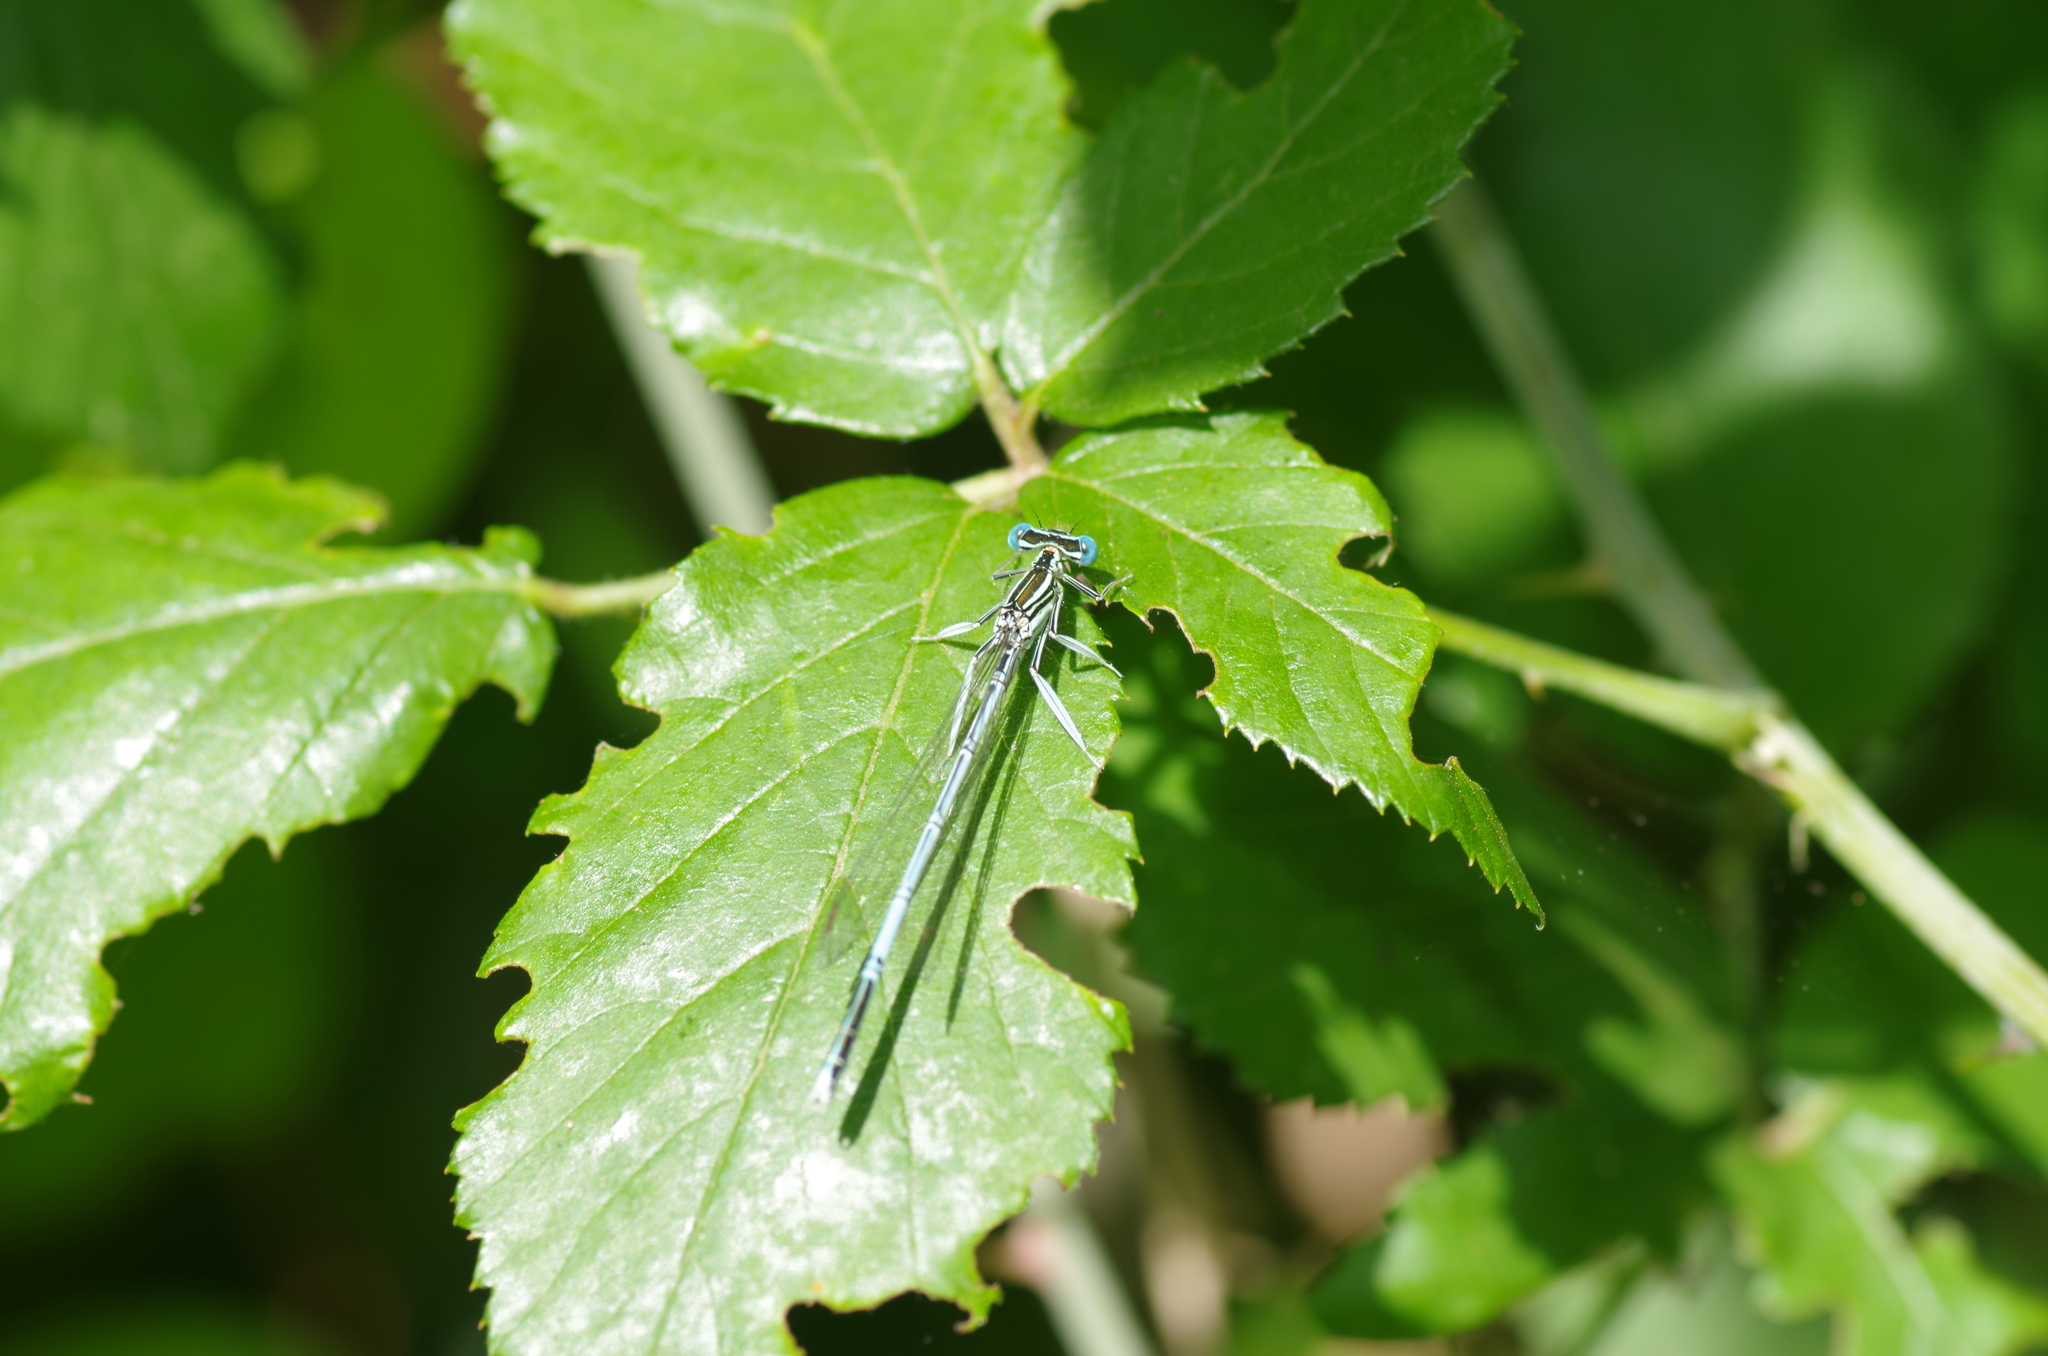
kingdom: Animalia
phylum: Arthropoda
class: Insecta
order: Odonata
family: Platycnemididae
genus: Platycnemis
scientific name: Platycnemis pennipes
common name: White-legged damselfly
